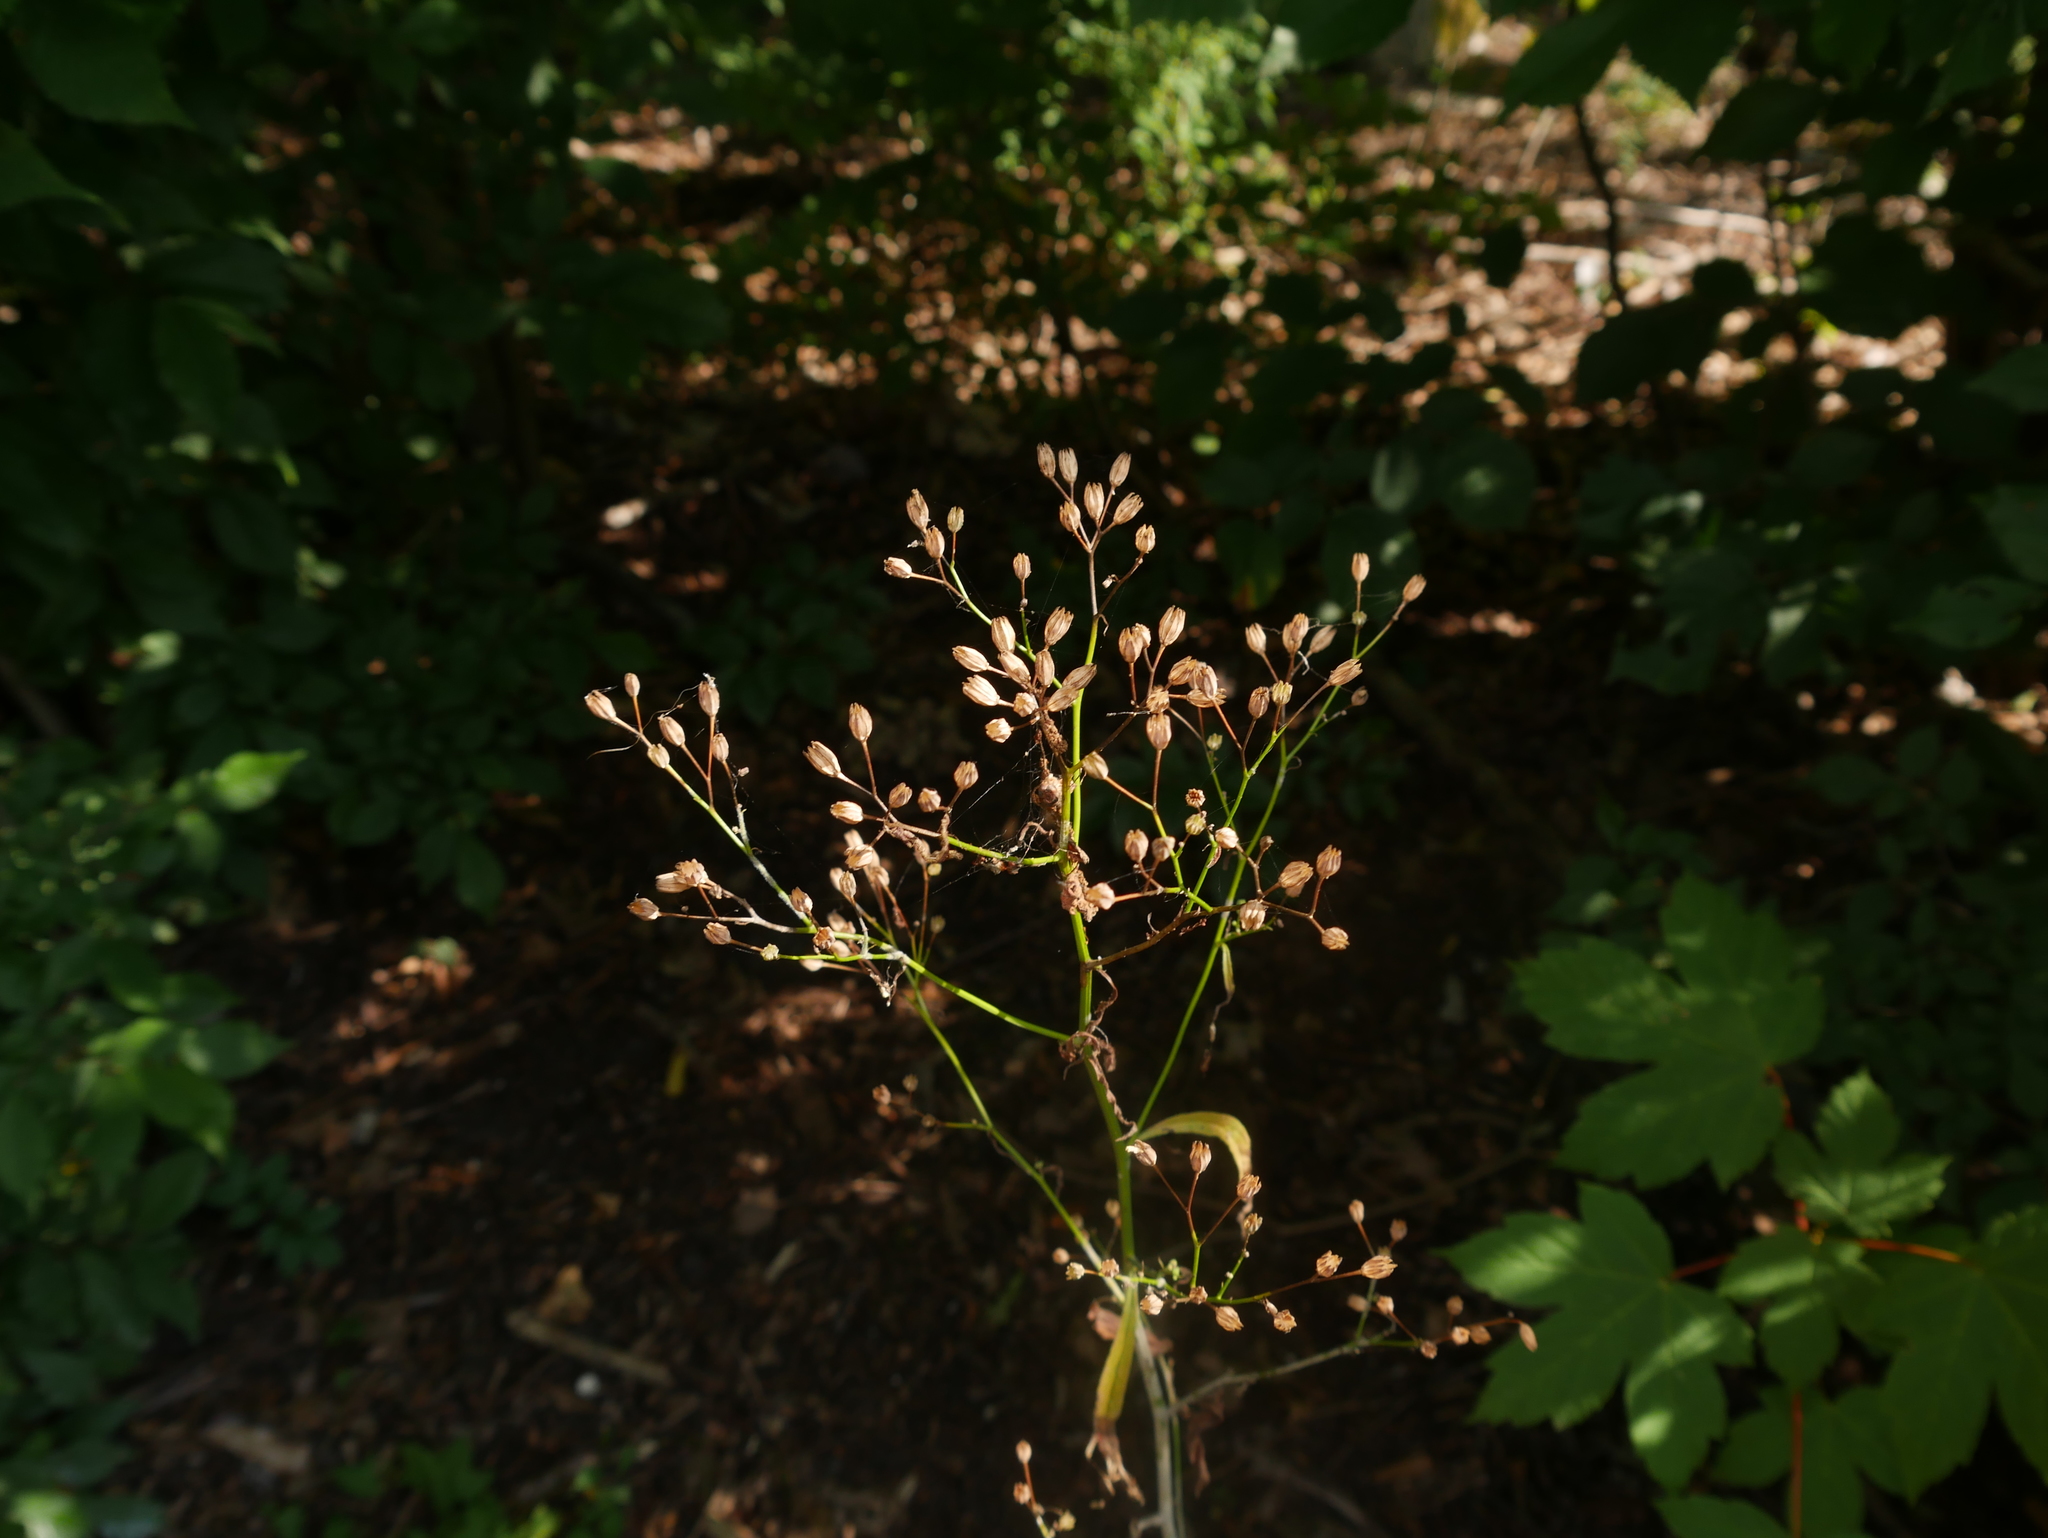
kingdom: Plantae
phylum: Tracheophyta
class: Magnoliopsida
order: Asterales
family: Asteraceae
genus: Lapsana
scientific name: Lapsana communis
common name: Nipplewort
